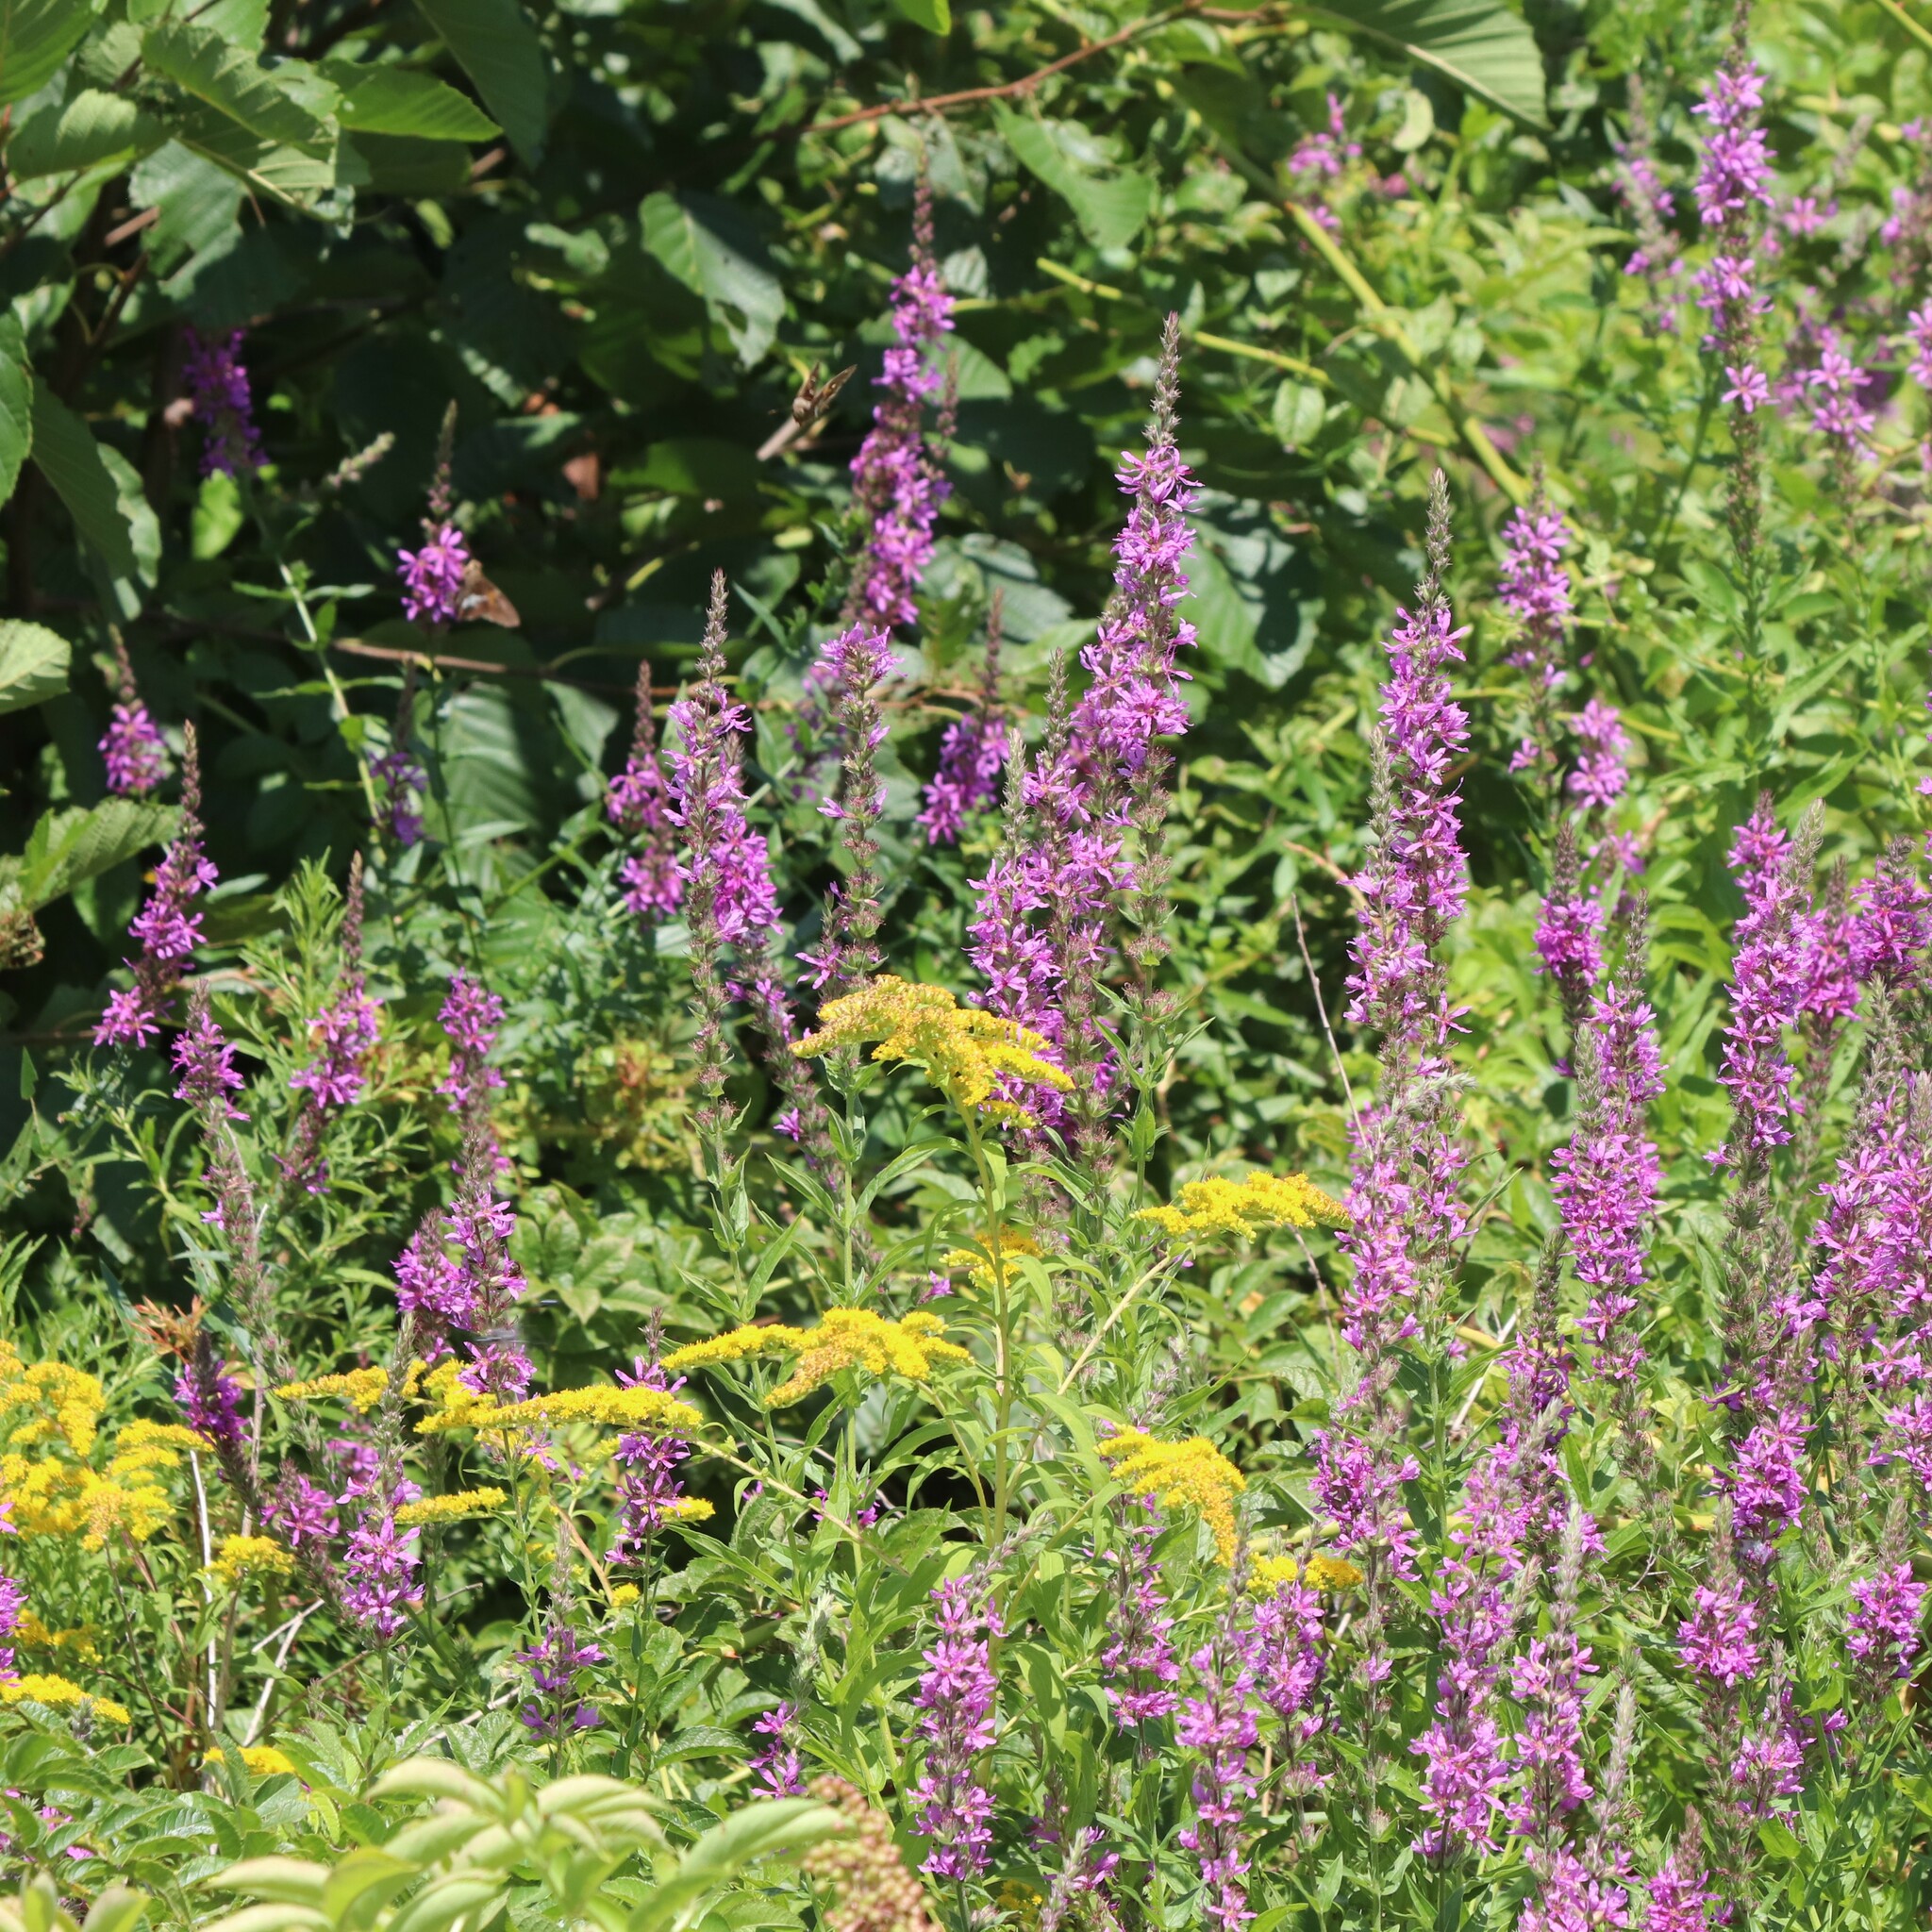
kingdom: Plantae
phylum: Tracheophyta
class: Magnoliopsida
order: Myrtales
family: Lythraceae
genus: Lythrum
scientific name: Lythrum salicaria
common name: Purple loosestrife
